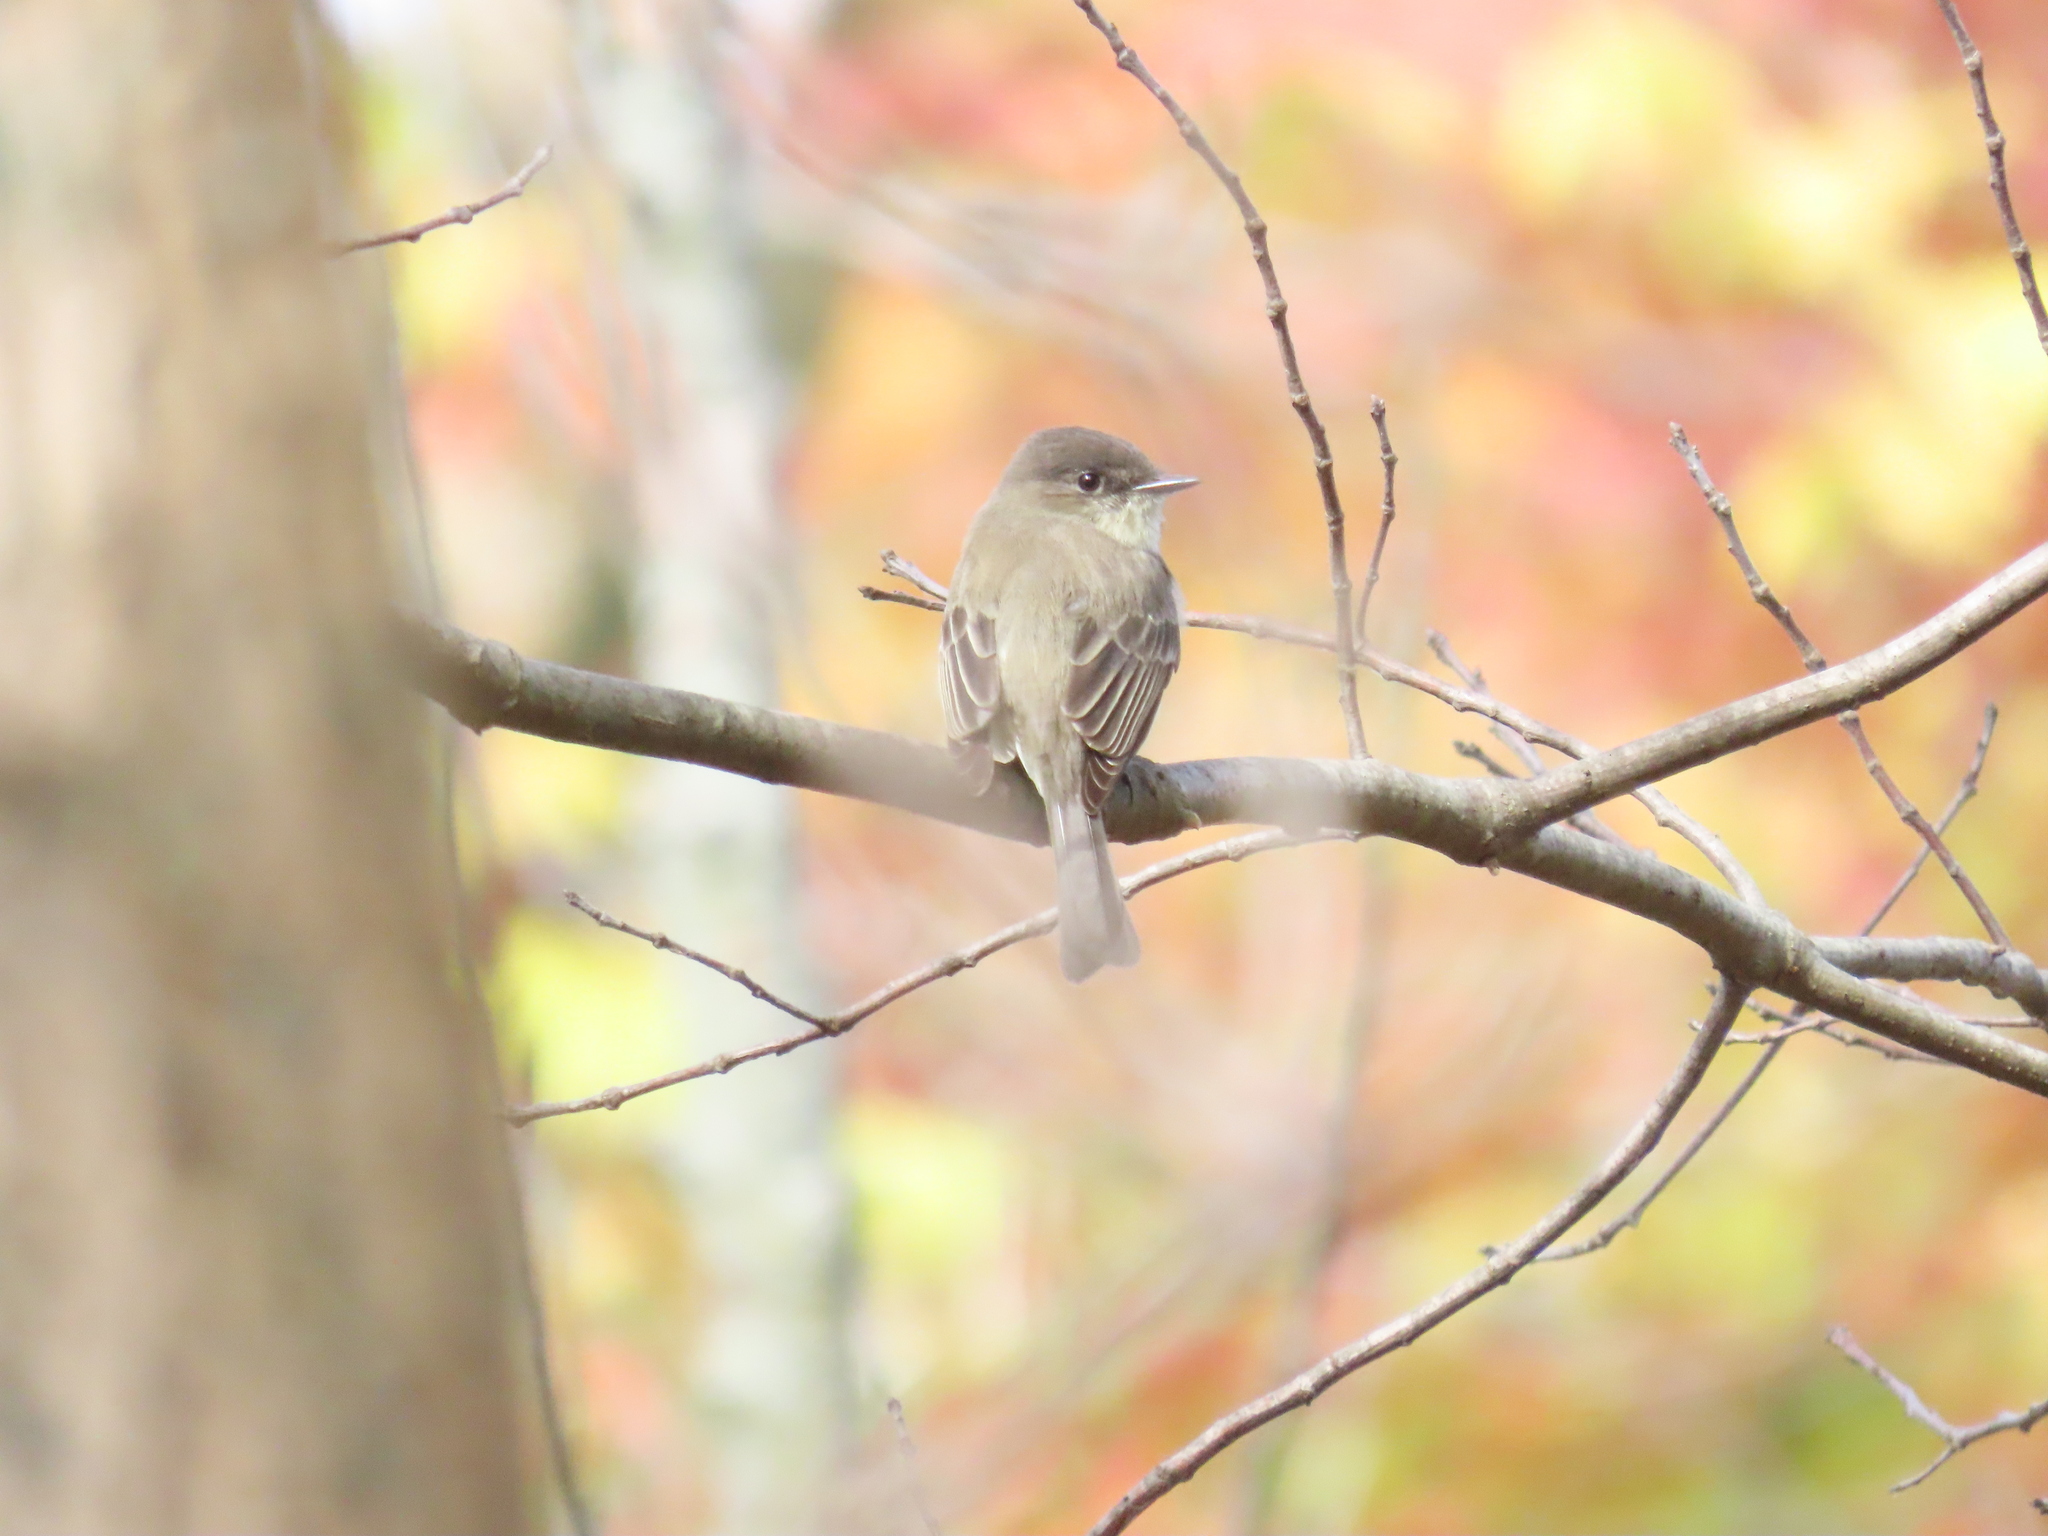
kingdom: Animalia
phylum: Chordata
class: Aves
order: Passeriformes
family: Tyrannidae
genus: Sayornis
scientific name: Sayornis phoebe
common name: Eastern phoebe
